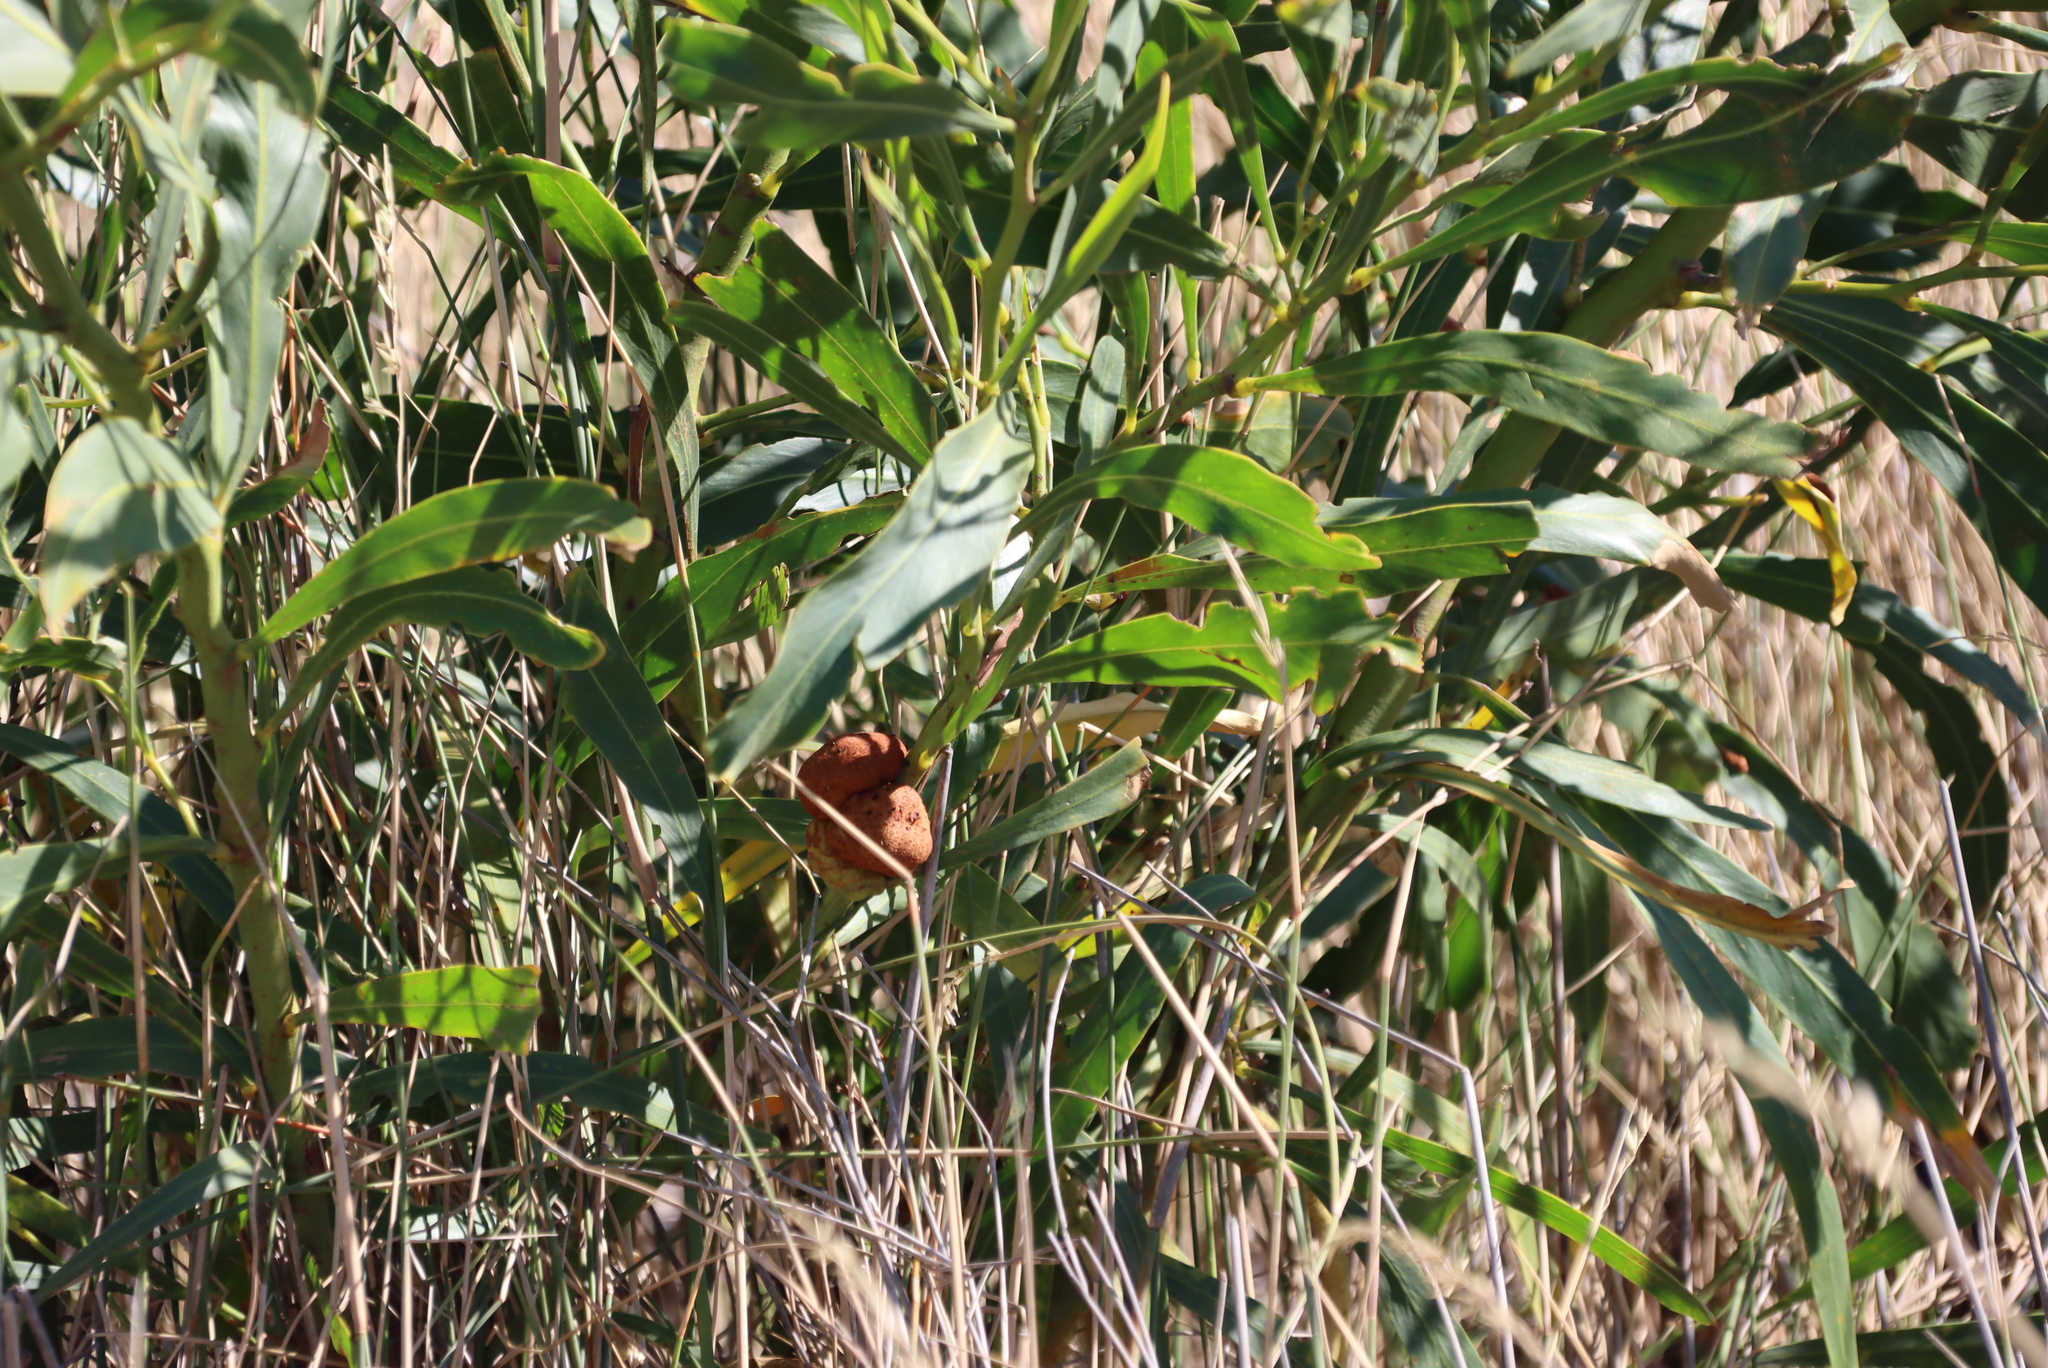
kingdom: Plantae
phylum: Tracheophyta
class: Magnoliopsida
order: Fabales
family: Fabaceae
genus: Acacia
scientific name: Acacia saligna
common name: Orange wattle
